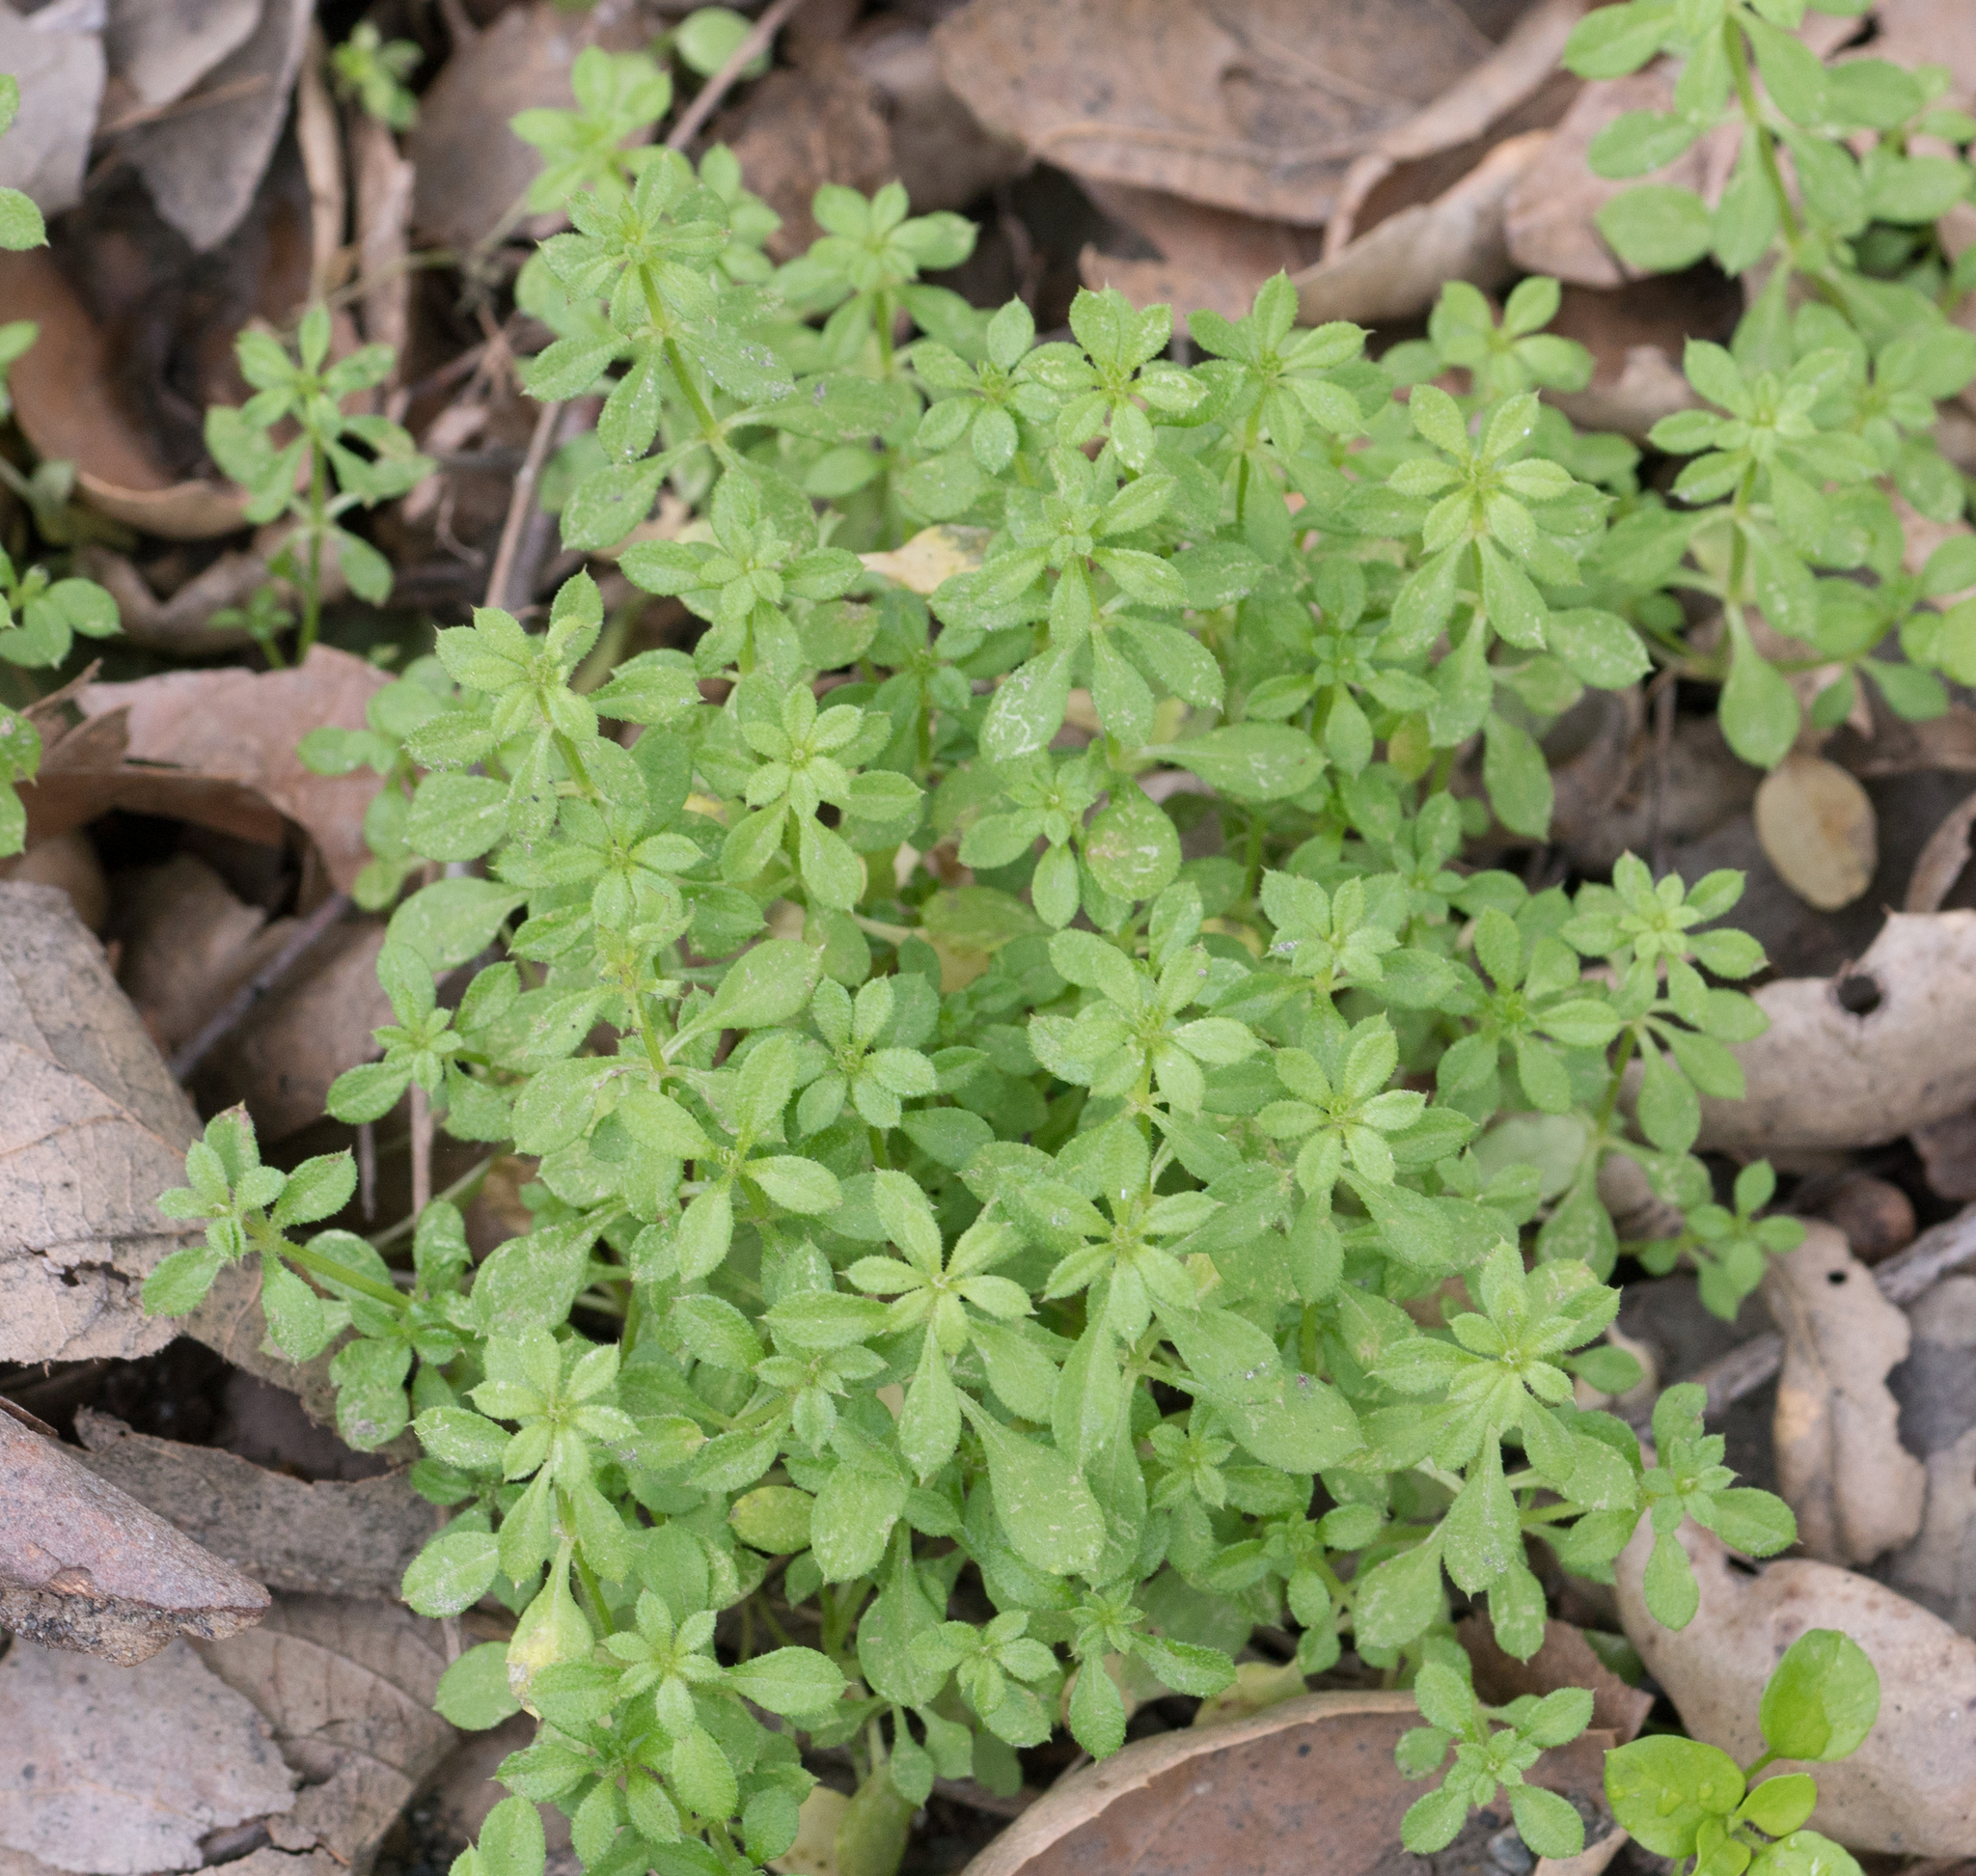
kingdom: Plantae
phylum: Tracheophyta
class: Magnoliopsida
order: Gentianales
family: Rubiaceae
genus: Galium
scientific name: Galium aparine
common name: Cleavers
